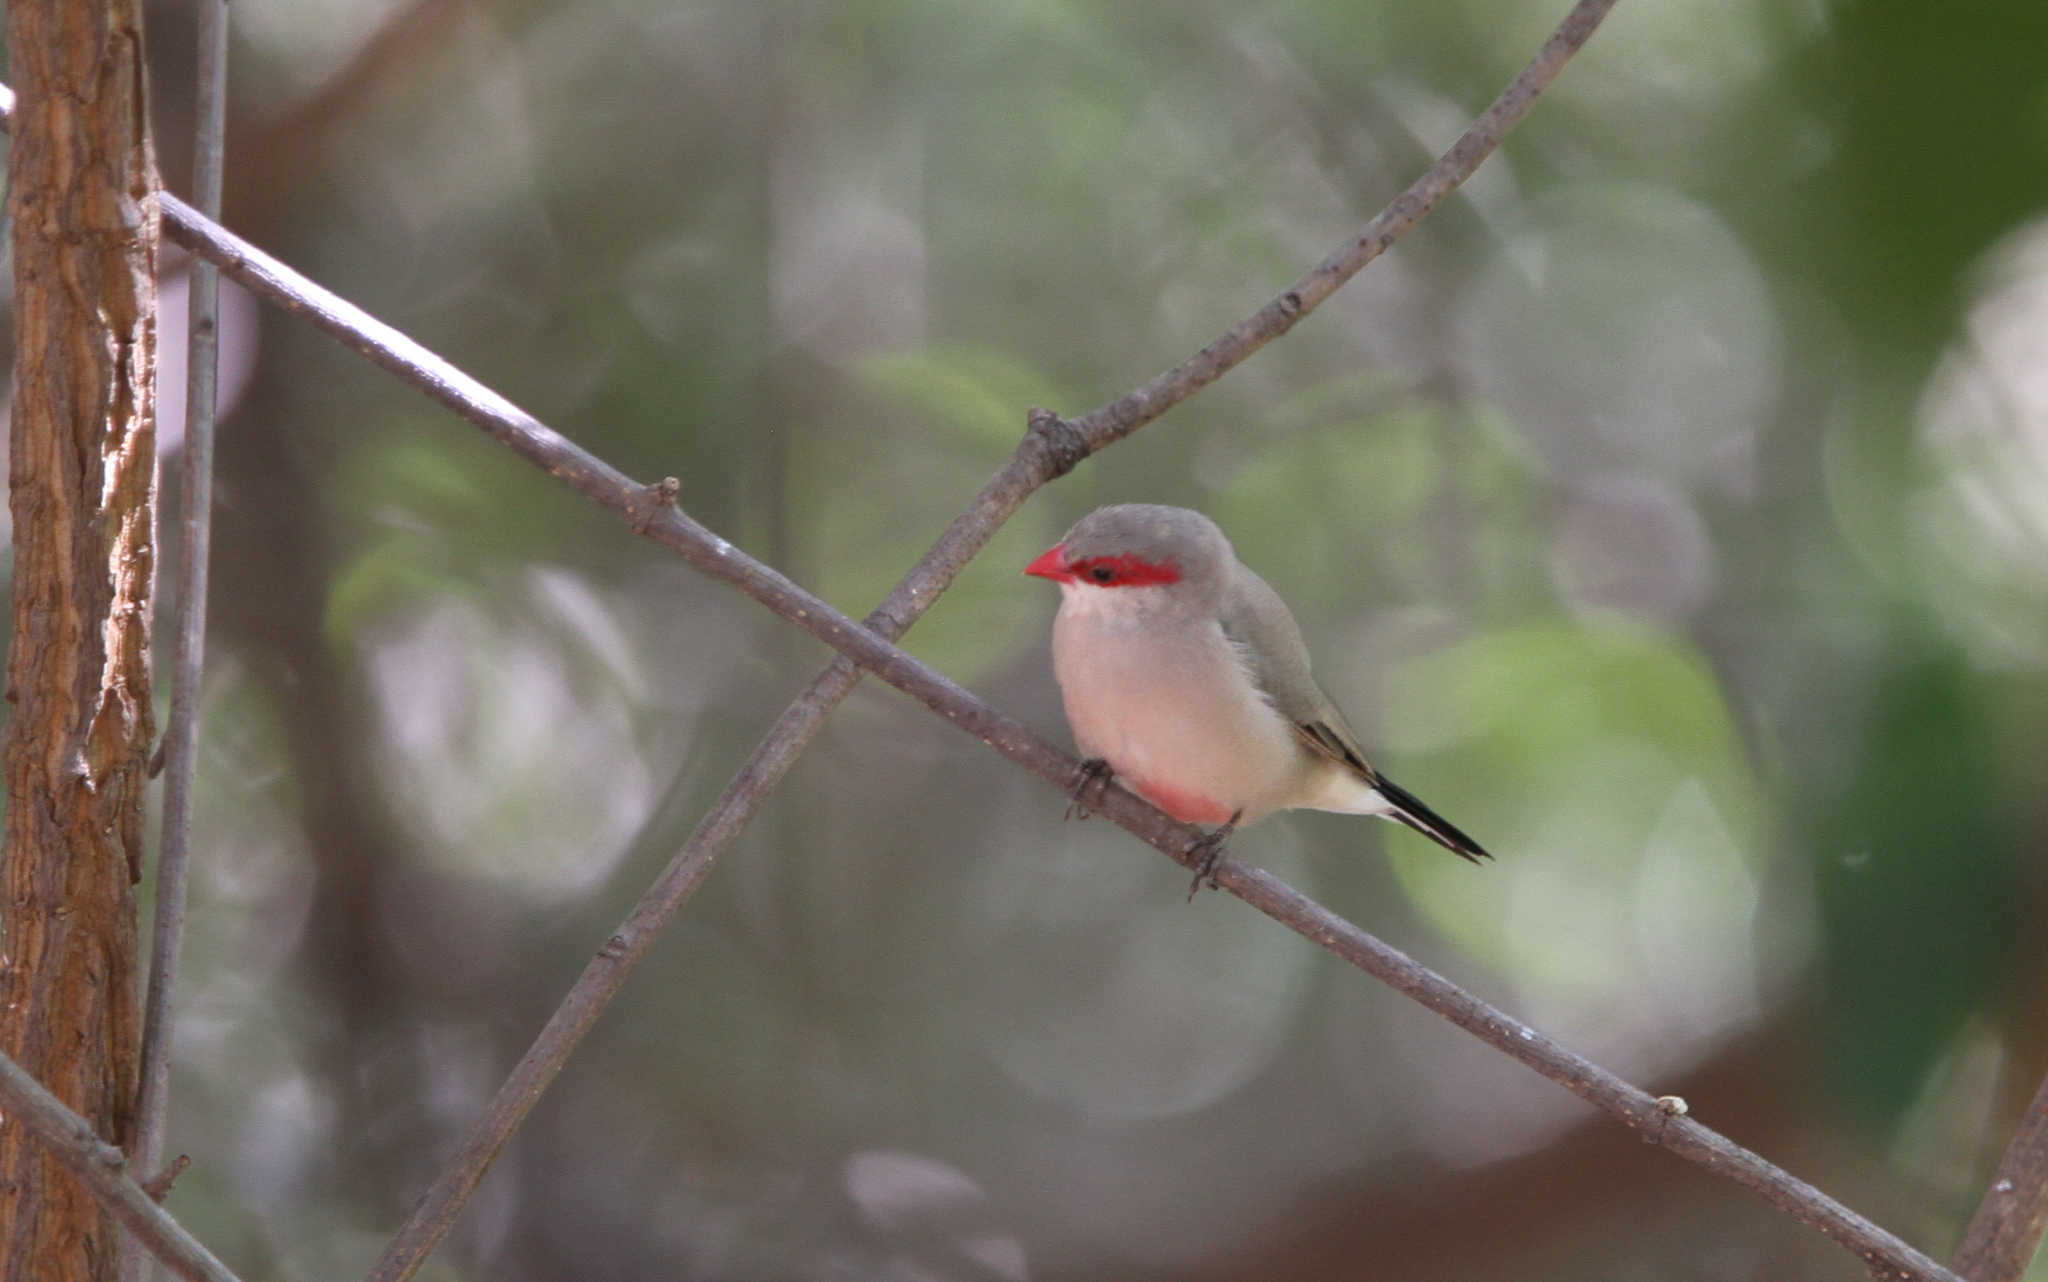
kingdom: Animalia
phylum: Chordata
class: Aves
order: Passeriformes
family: Estrildidae
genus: Estrilda
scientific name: Estrilda troglodytes
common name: Black-rumped waxbill
